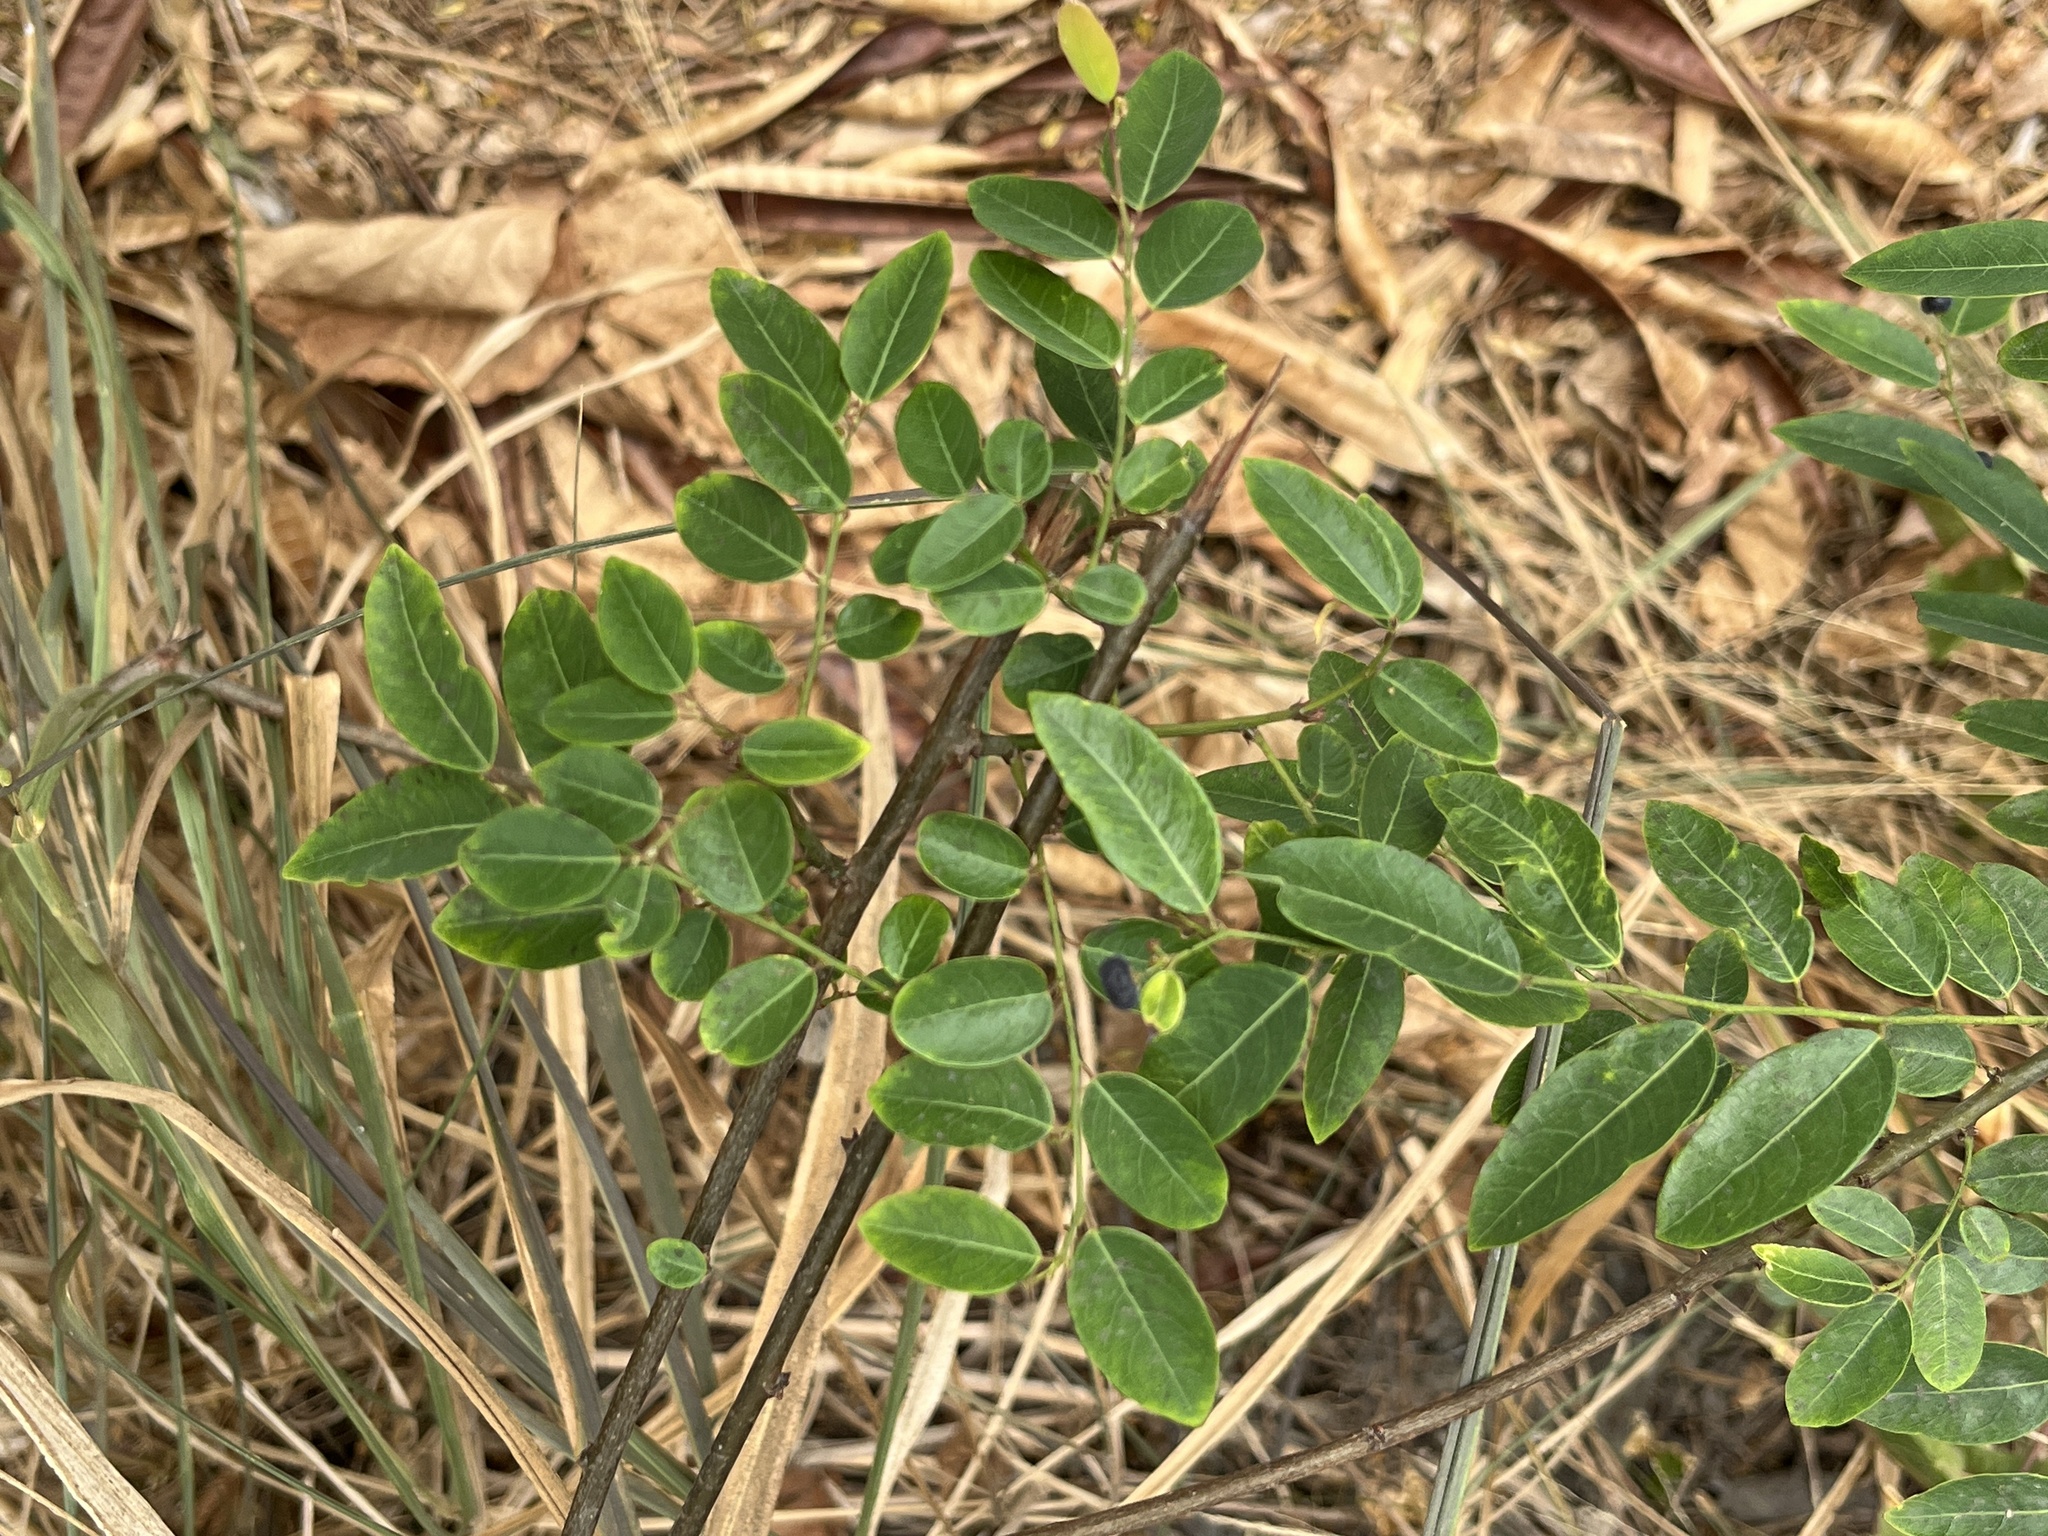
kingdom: Plantae
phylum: Tracheophyta
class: Magnoliopsida
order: Malpighiales
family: Phyllanthaceae
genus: Phyllanthus
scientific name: Phyllanthus reticulatus
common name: Potato bush
